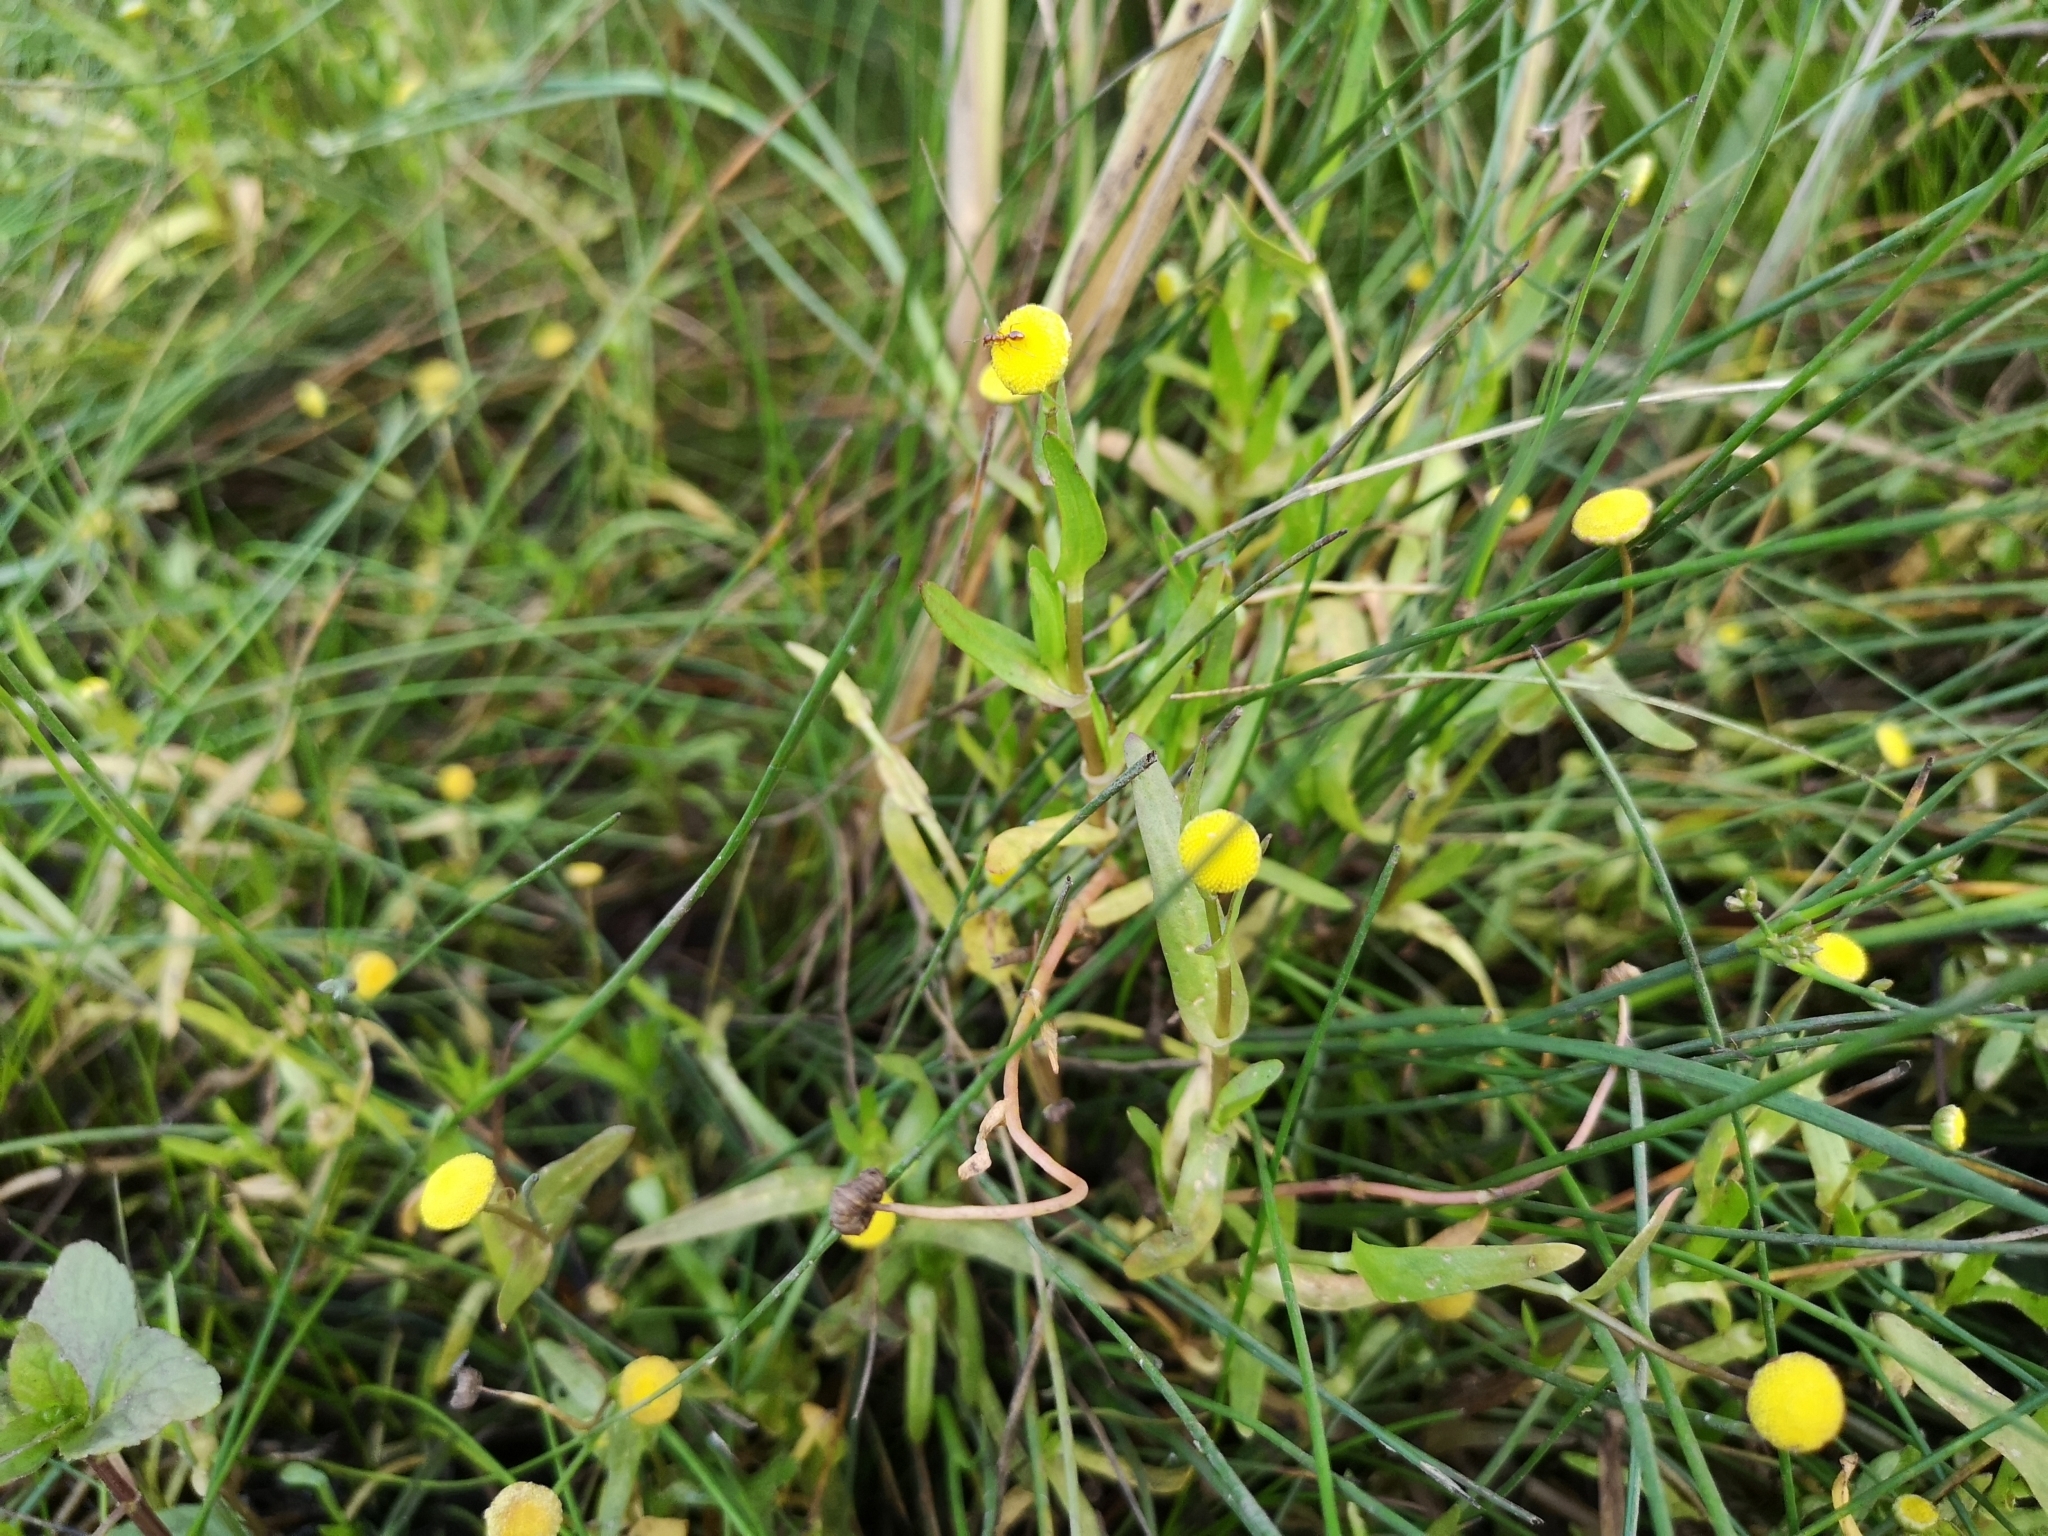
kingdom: Plantae
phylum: Tracheophyta
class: Magnoliopsida
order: Asterales
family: Asteraceae
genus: Cotula
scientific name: Cotula coronopifolia
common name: Buttonweed
